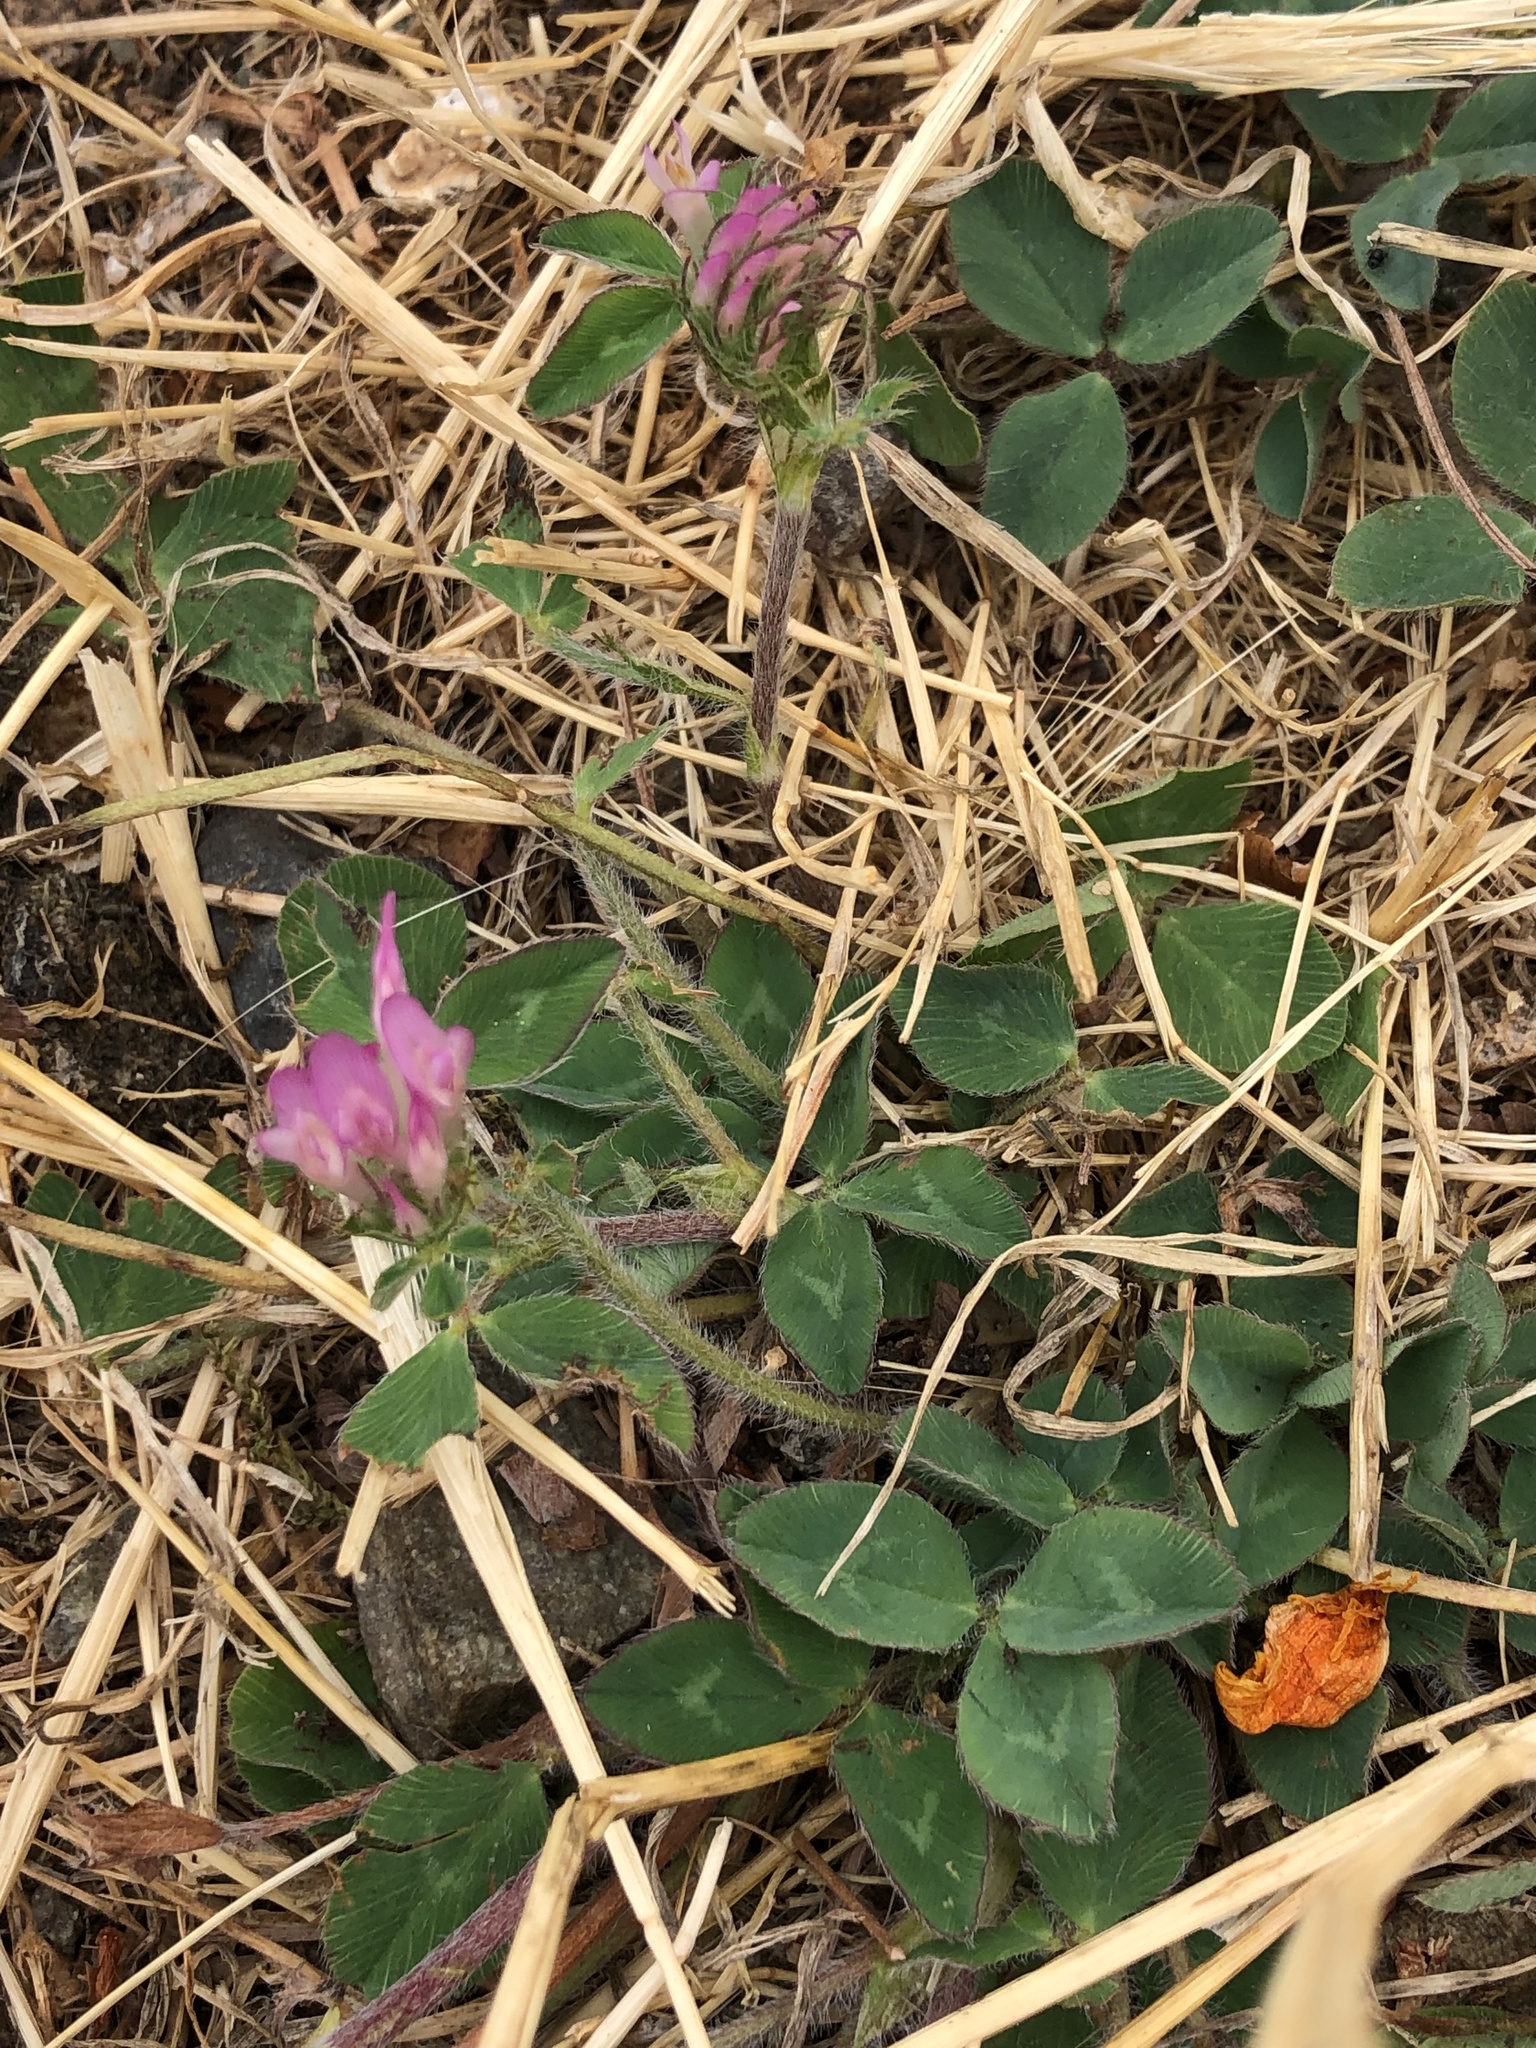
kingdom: Plantae
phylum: Tracheophyta
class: Magnoliopsida
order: Fabales
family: Fabaceae
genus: Trifolium
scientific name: Trifolium pratense
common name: Red clover
